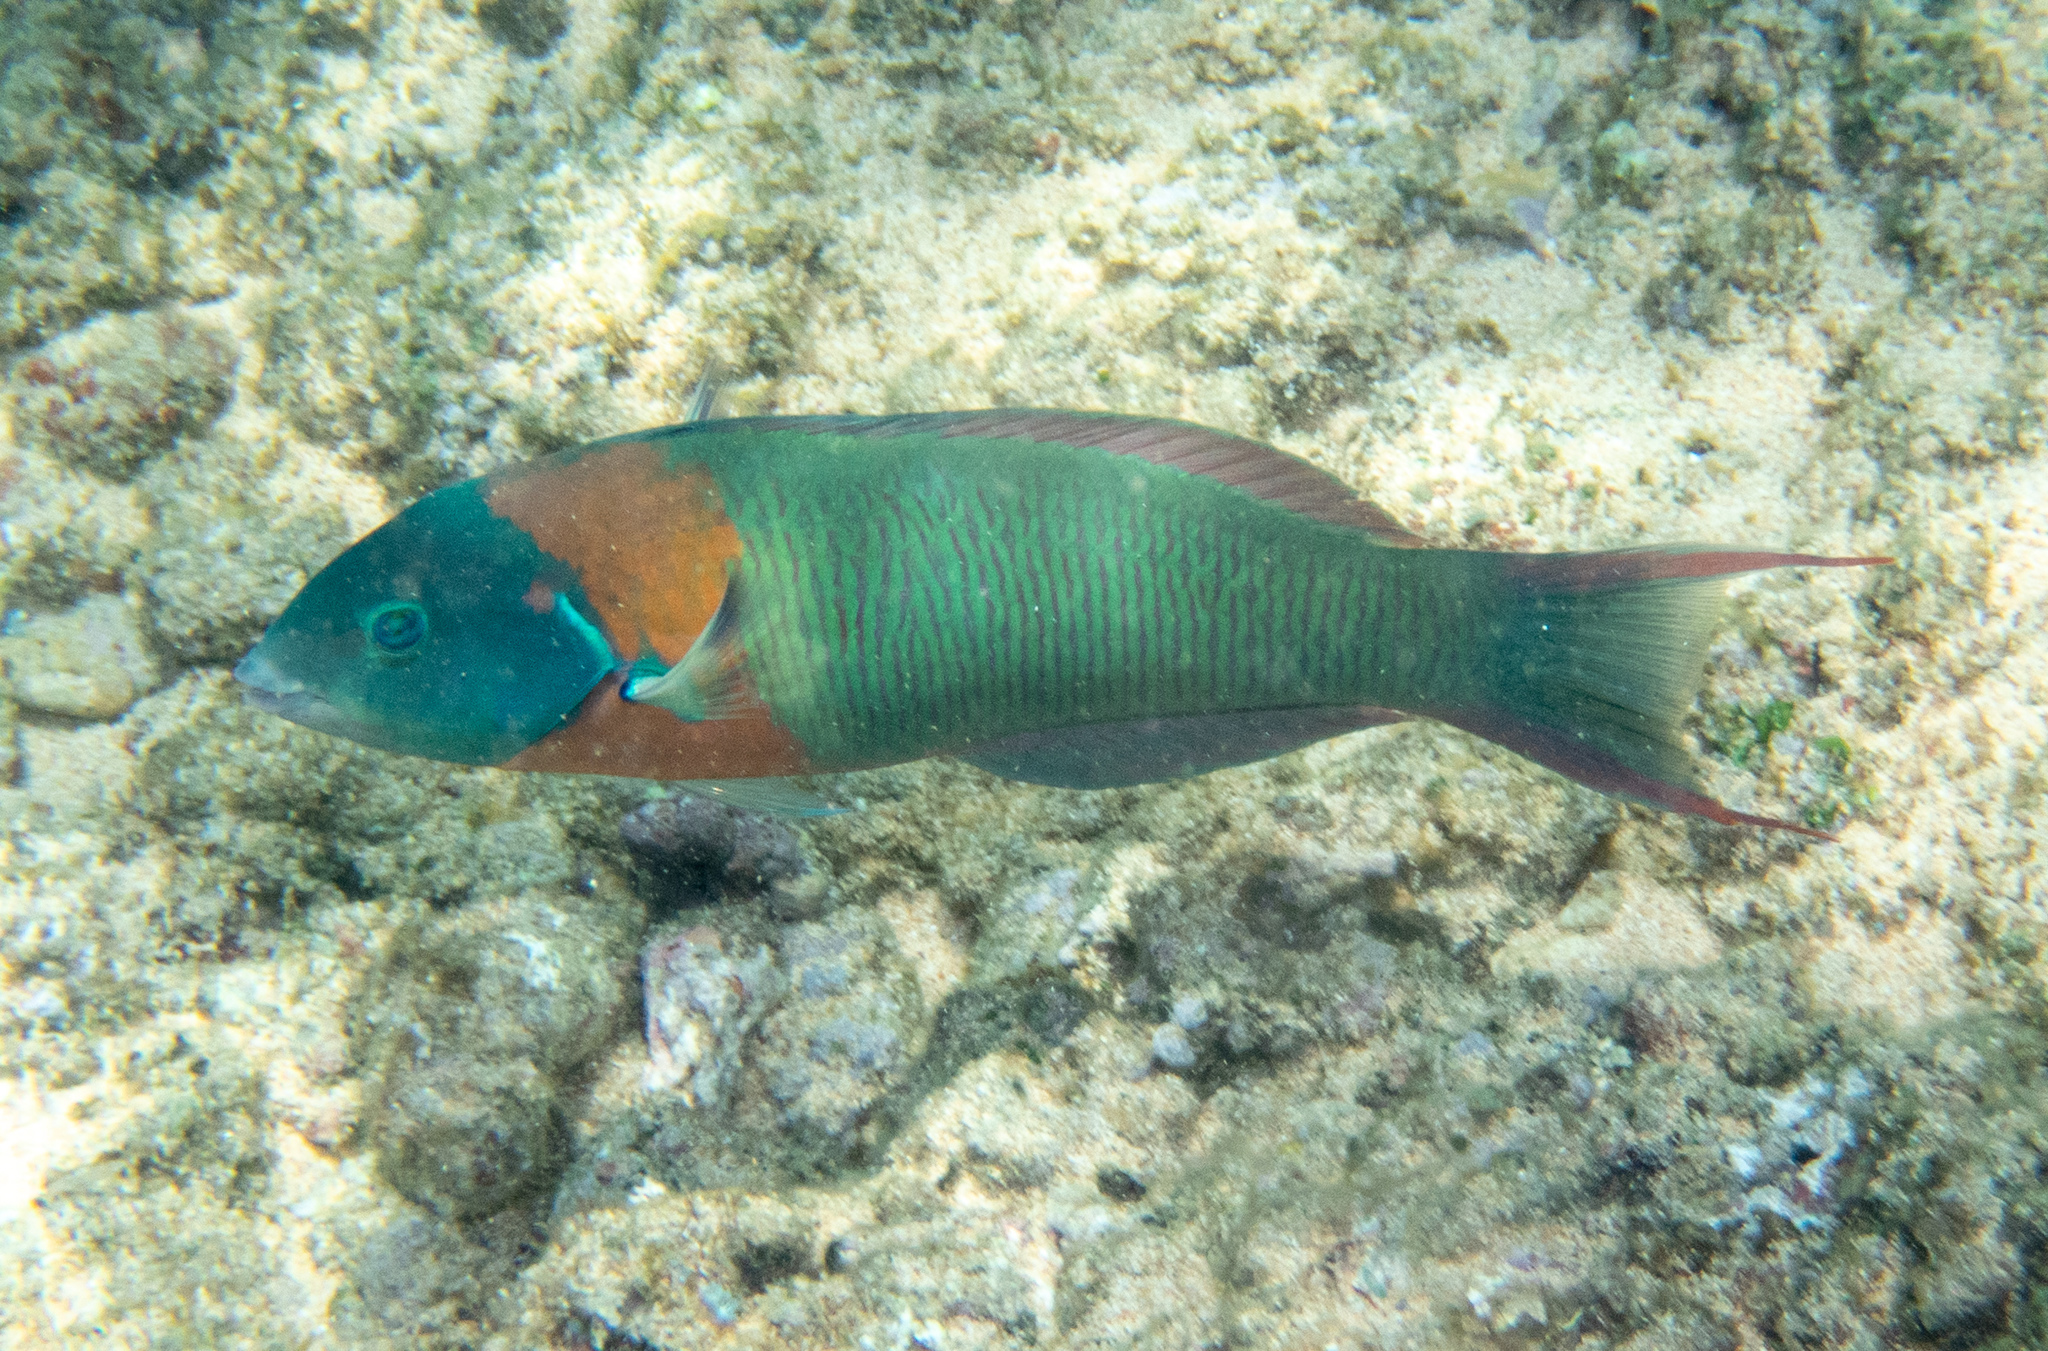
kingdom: Animalia
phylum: Chordata
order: Perciformes
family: Labridae
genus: Thalassoma
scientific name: Thalassoma duperrey
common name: Saddle wrasse
